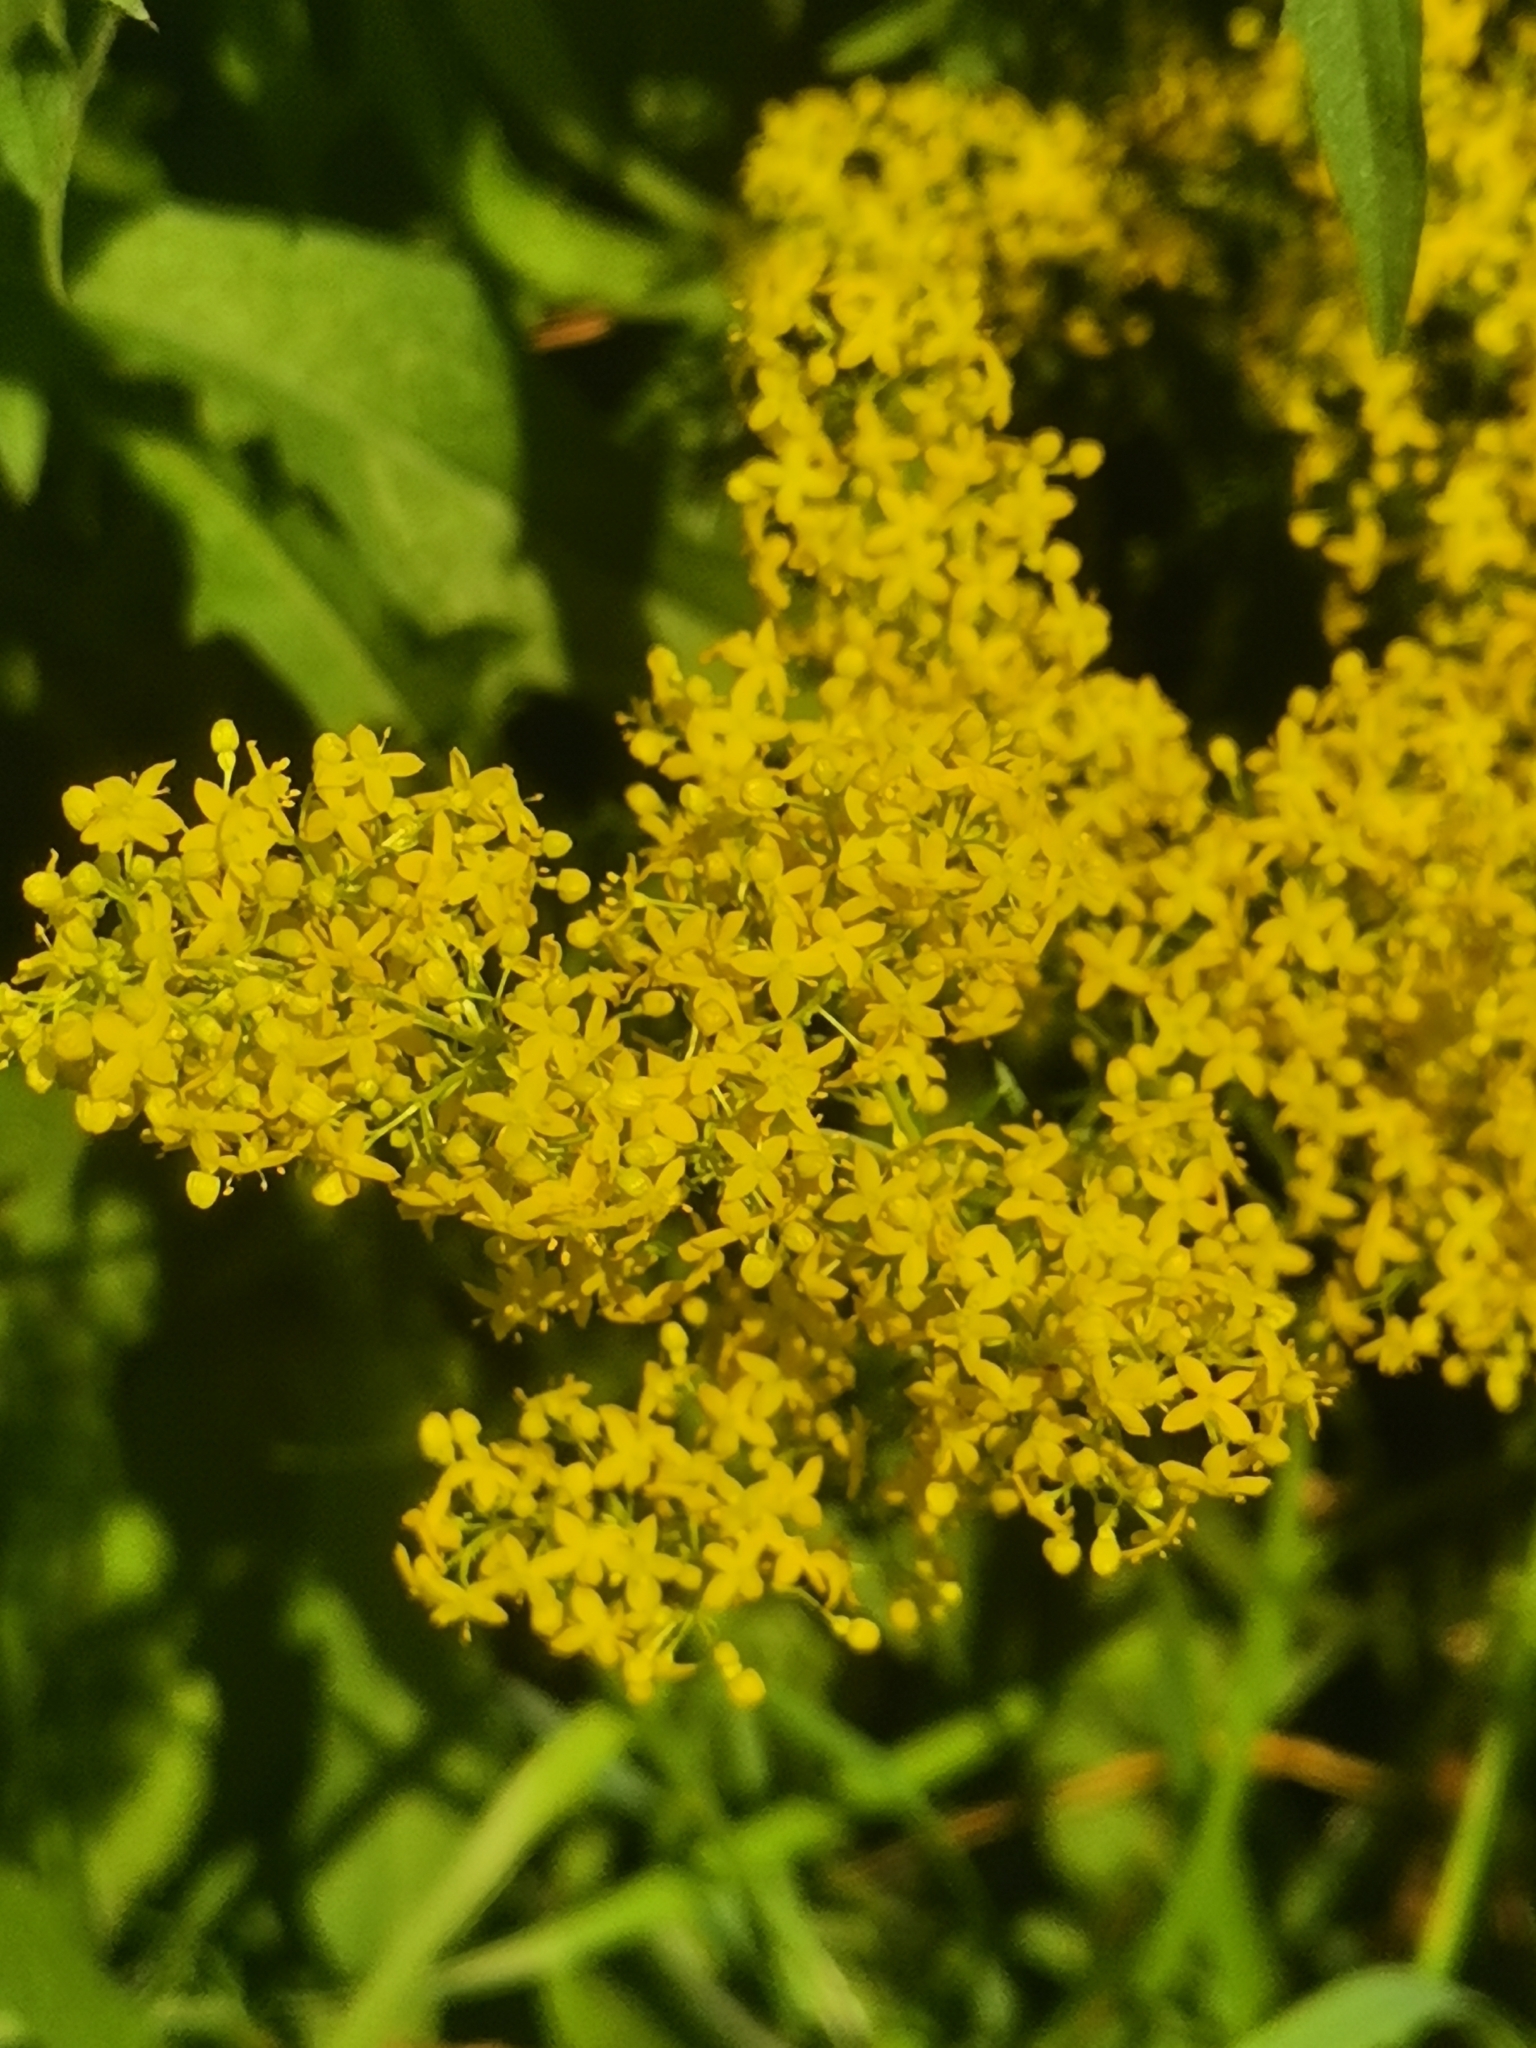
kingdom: Plantae
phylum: Tracheophyta
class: Magnoliopsida
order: Gentianales
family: Rubiaceae
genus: Galium
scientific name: Galium verum
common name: Lady's bedstraw
